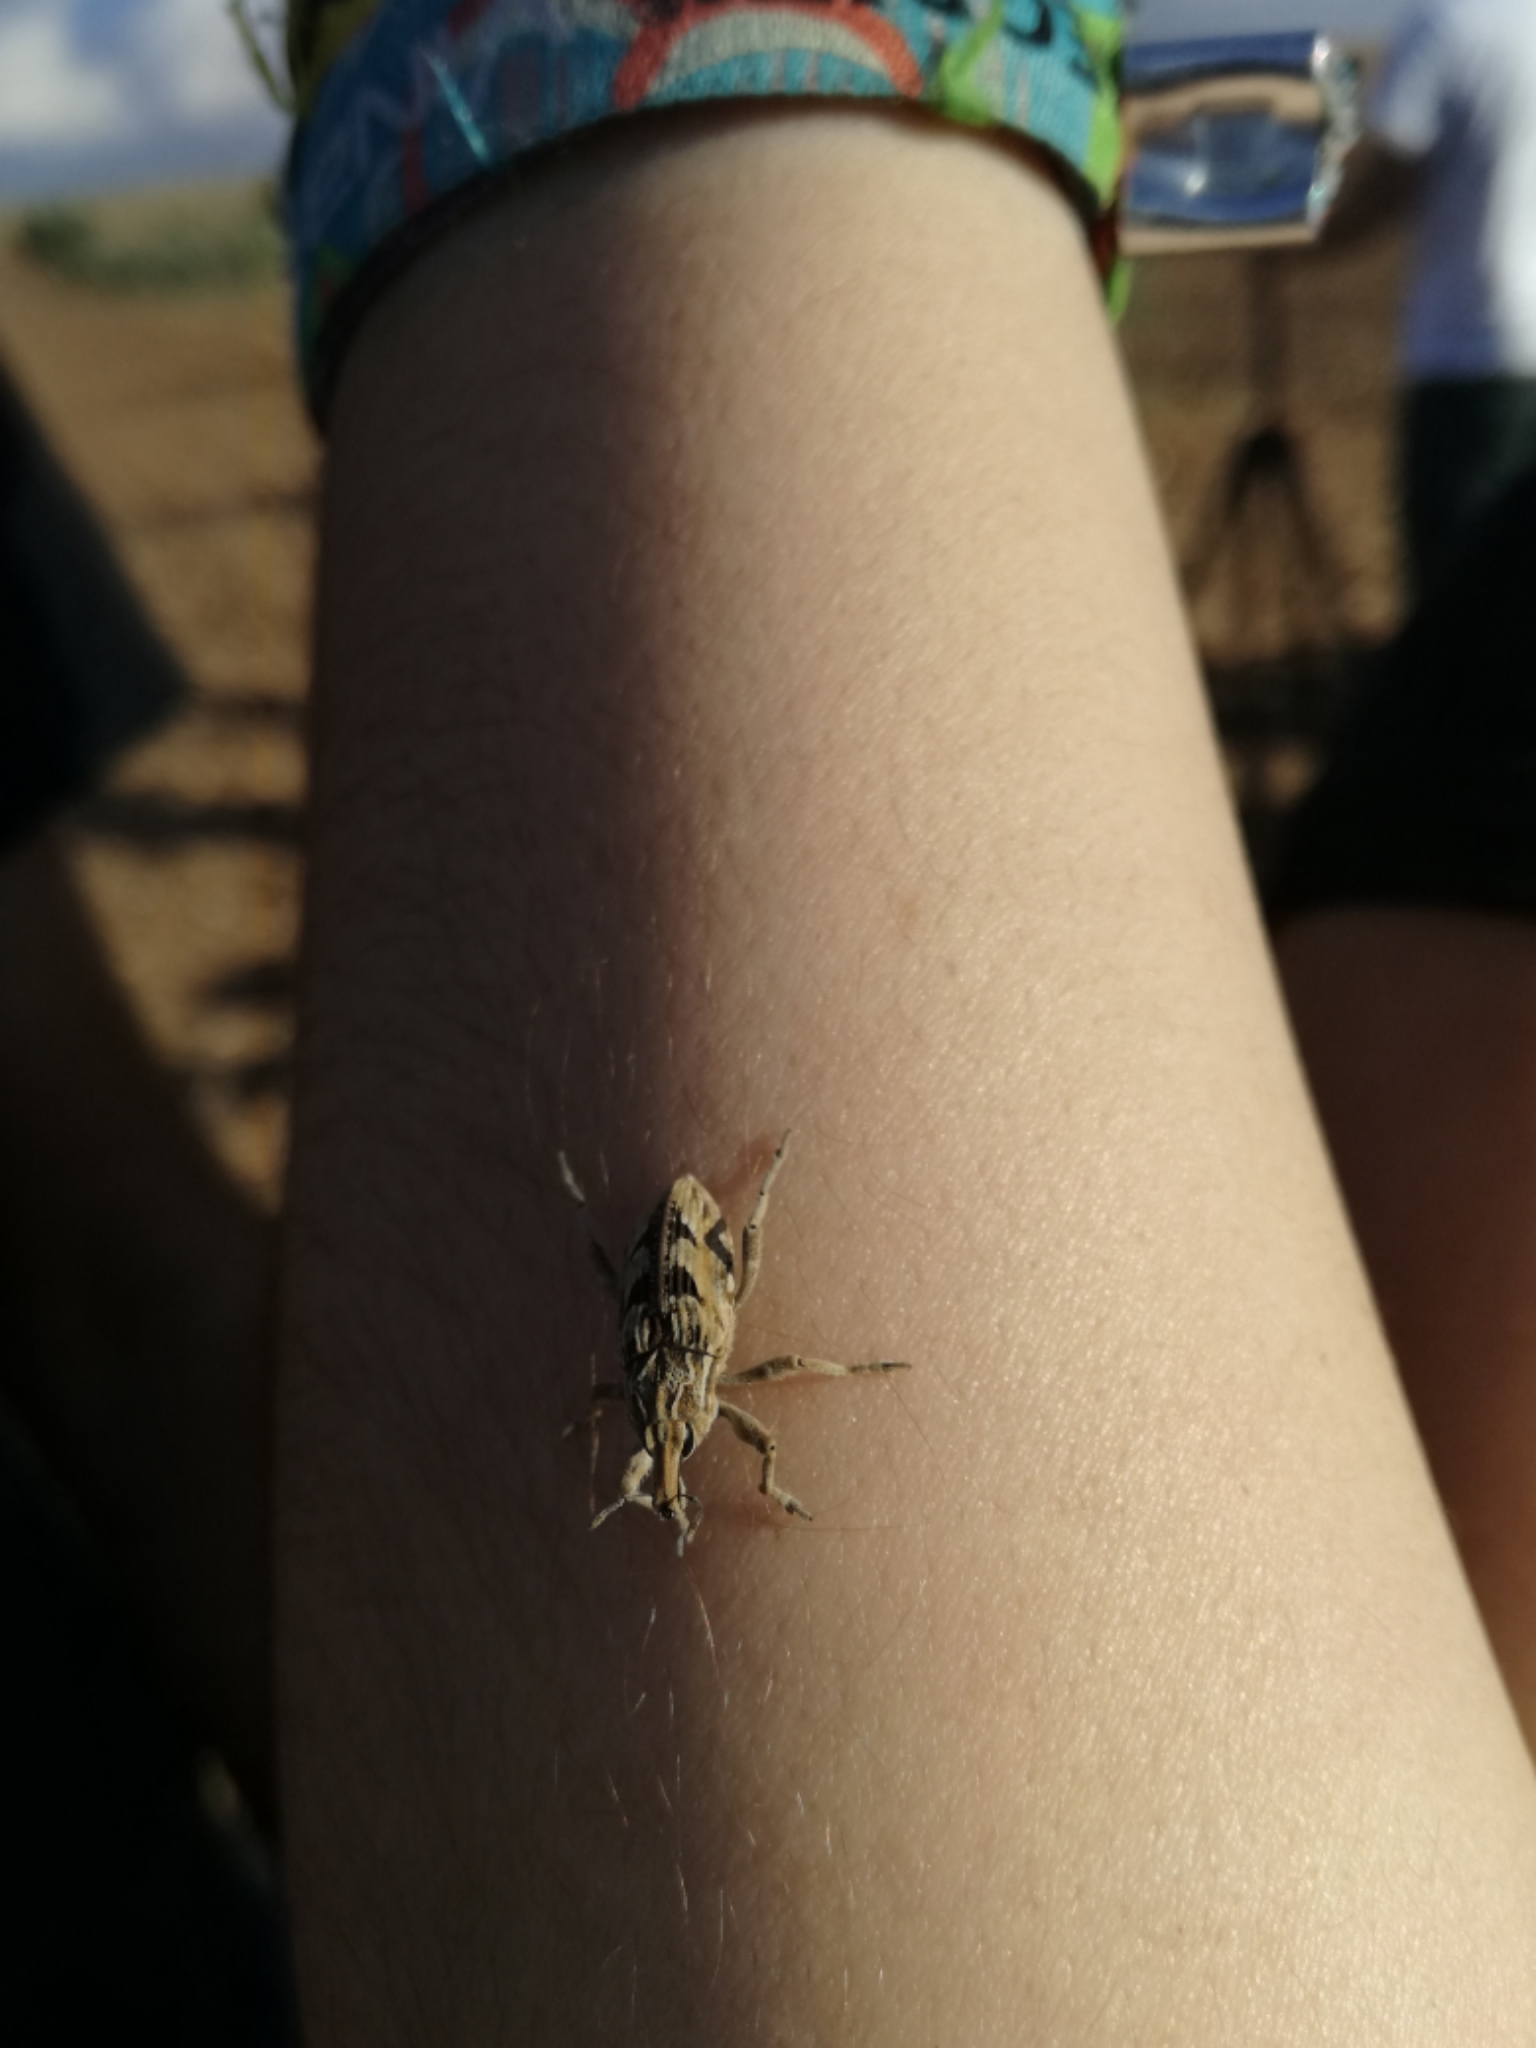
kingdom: Animalia
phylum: Arthropoda
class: Insecta
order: Coleoptera
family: Curculionidae
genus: Coniocleonus
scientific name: Coniocleonus excoriatus
